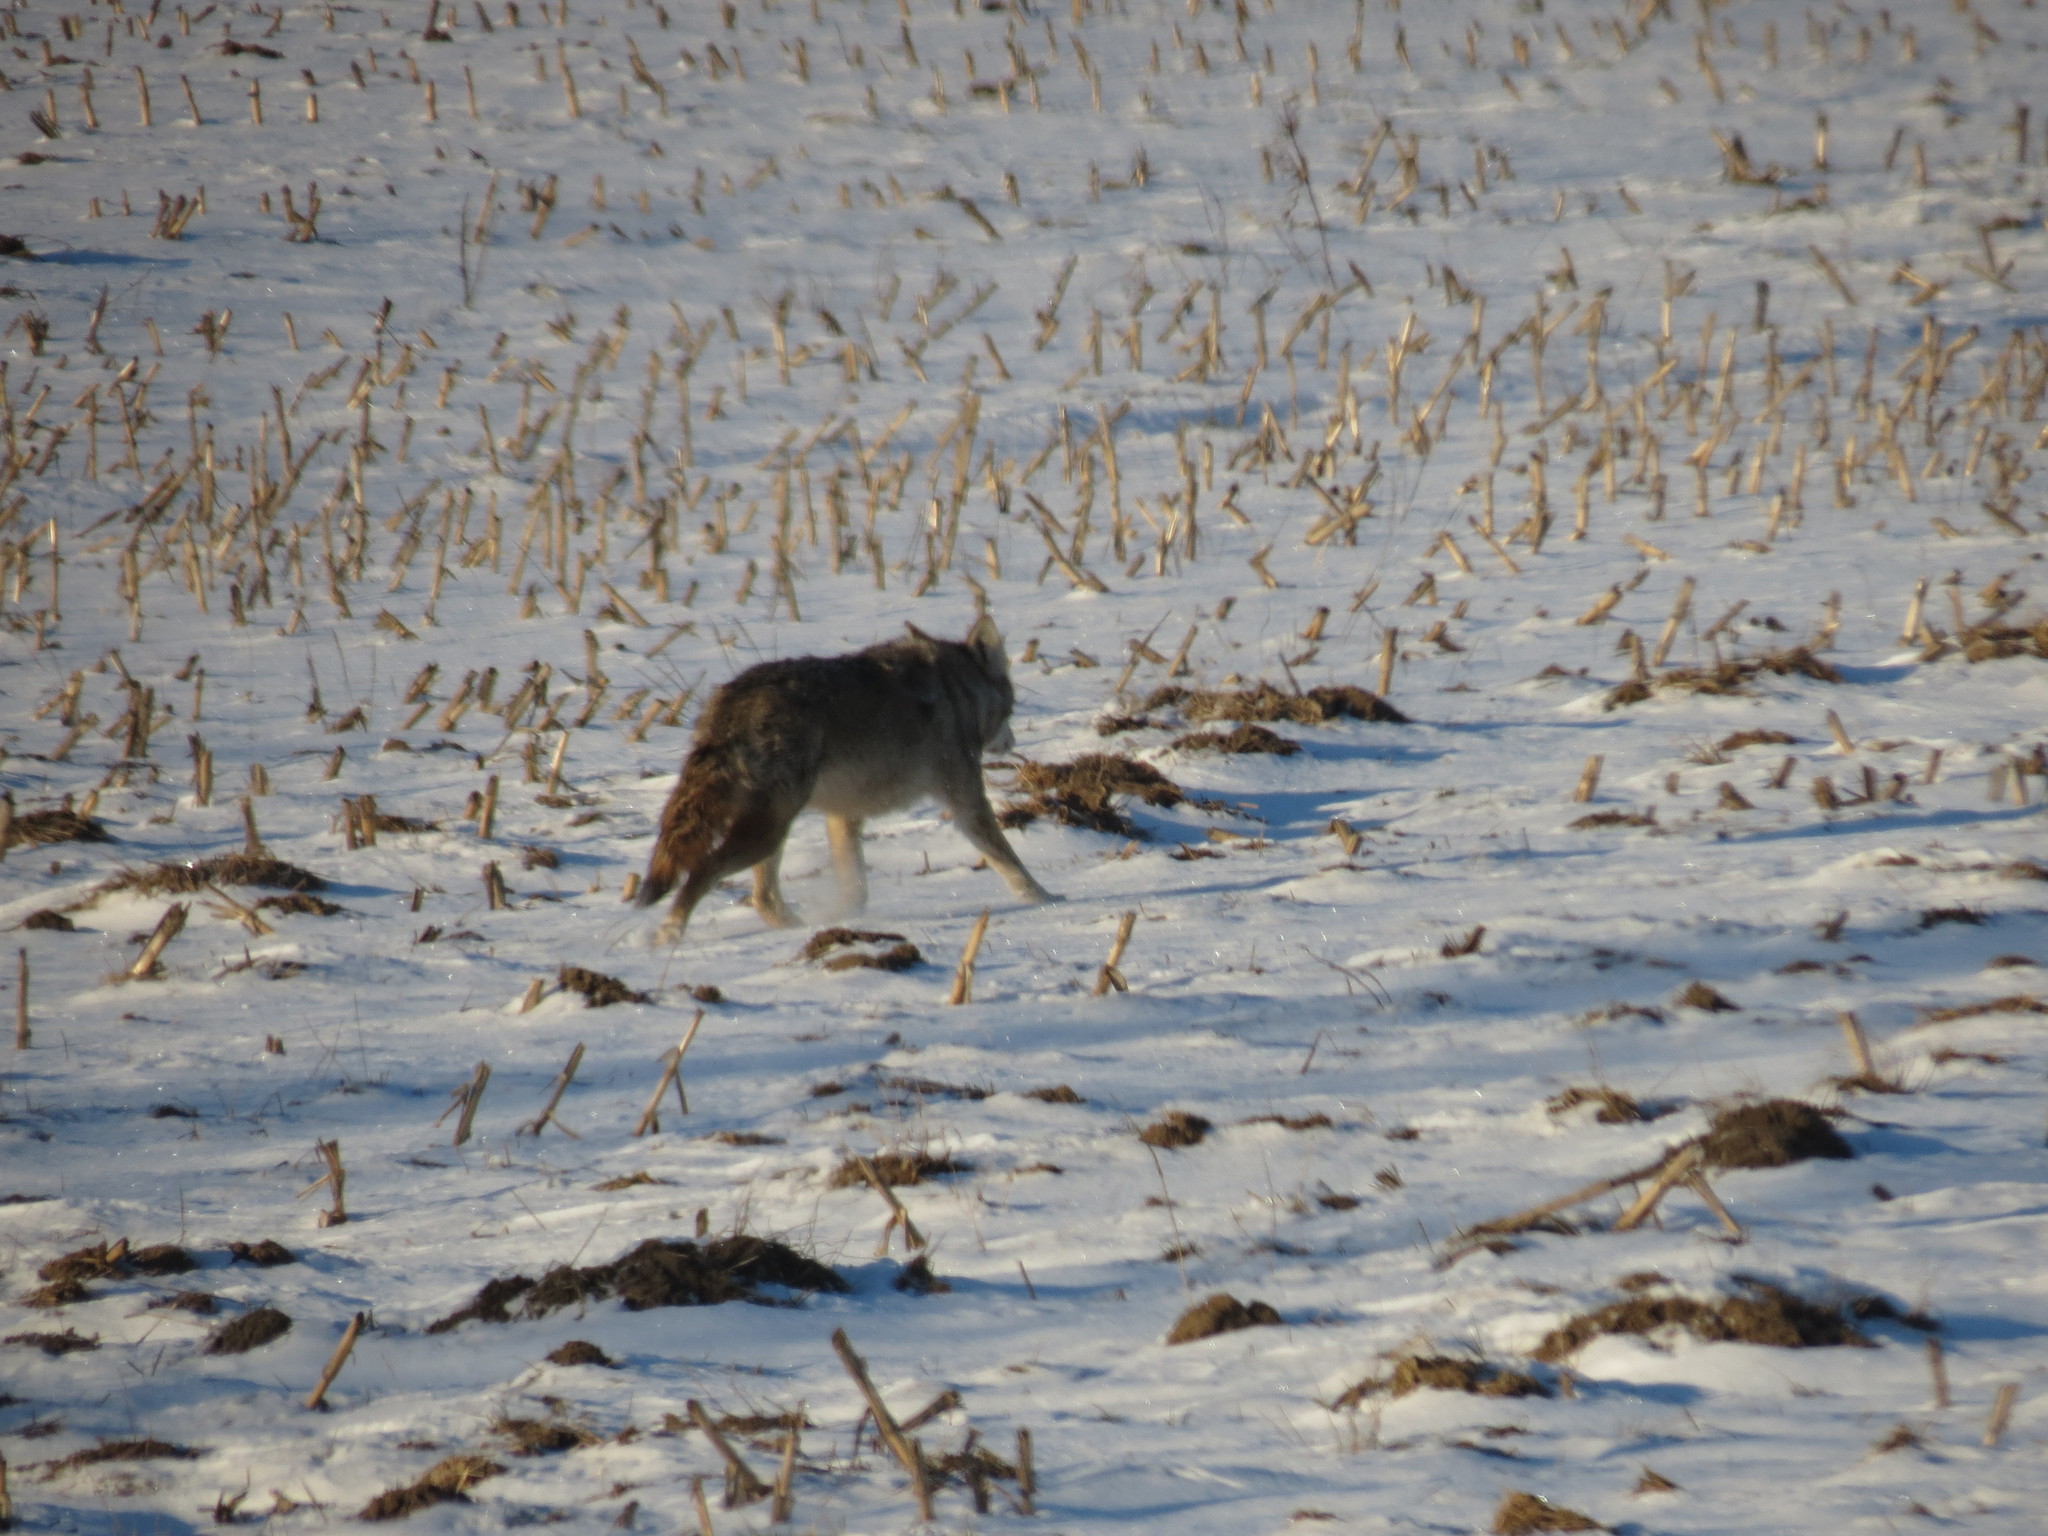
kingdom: Animalia
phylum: Chordata
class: Mammalia
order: Carnivora
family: Canidae
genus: Canis
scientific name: Canis latrans
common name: Coyote
